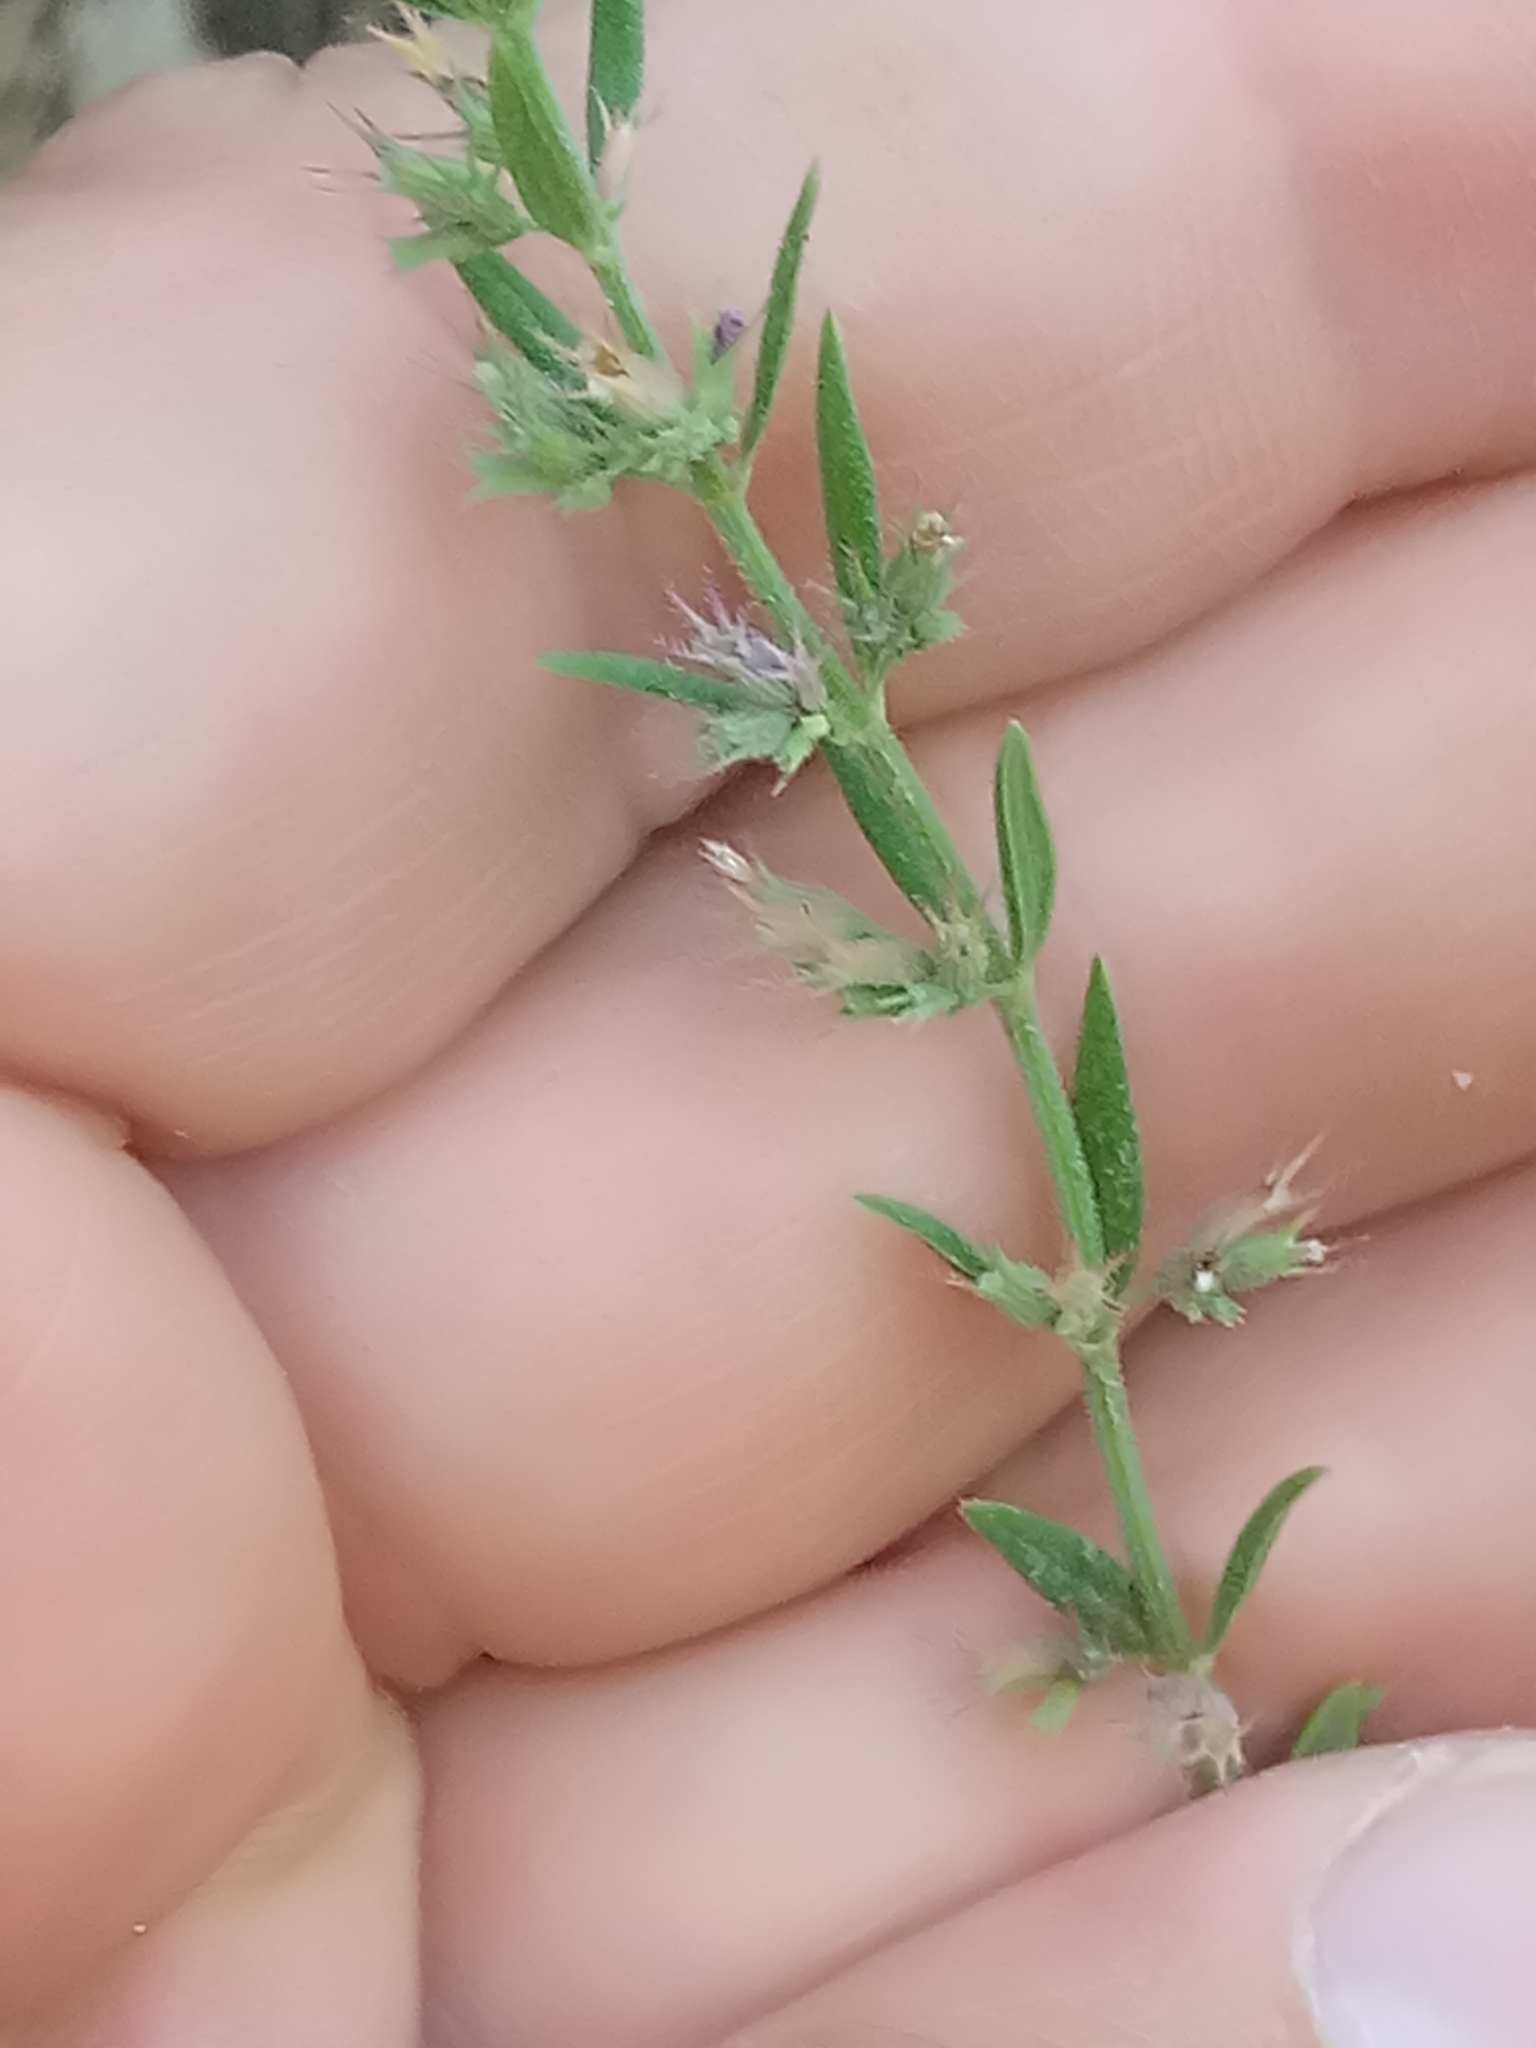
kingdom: Plantae
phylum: Tracheophyta
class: Magnoliopsida
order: Lamiales
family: Lamiaceae
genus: Micromeria
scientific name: Micromeria graeca
